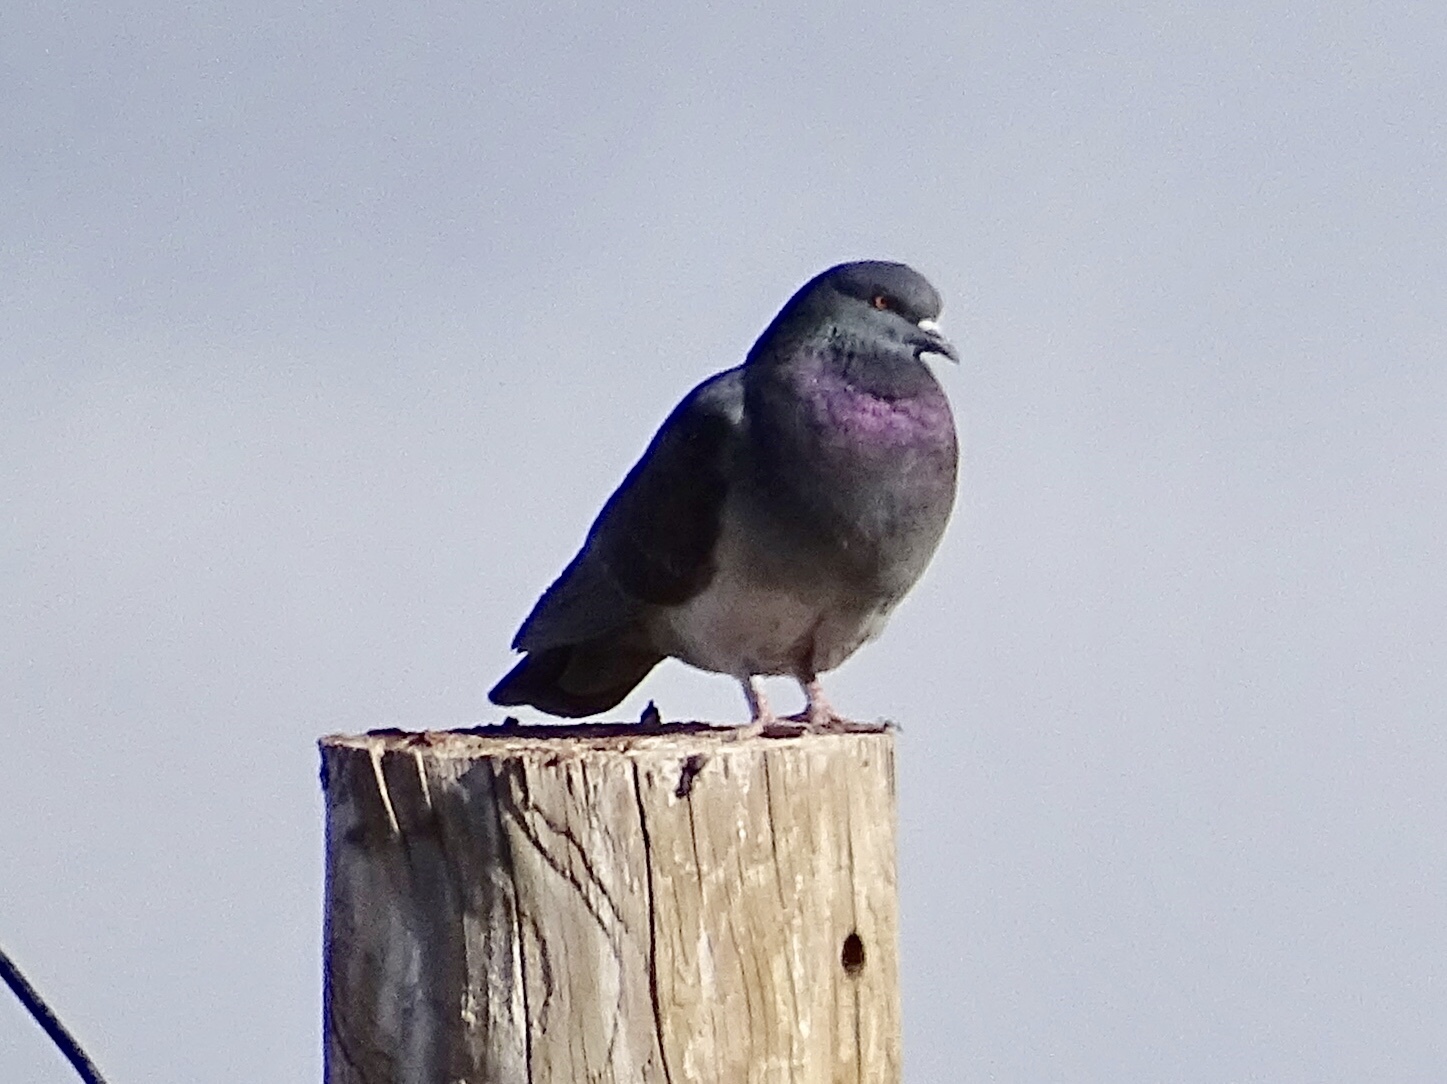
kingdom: Animalia
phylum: Chordata
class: Aves
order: Columbiformes
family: Columbidae
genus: Columba
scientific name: Columba livia
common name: Rock pigeon
